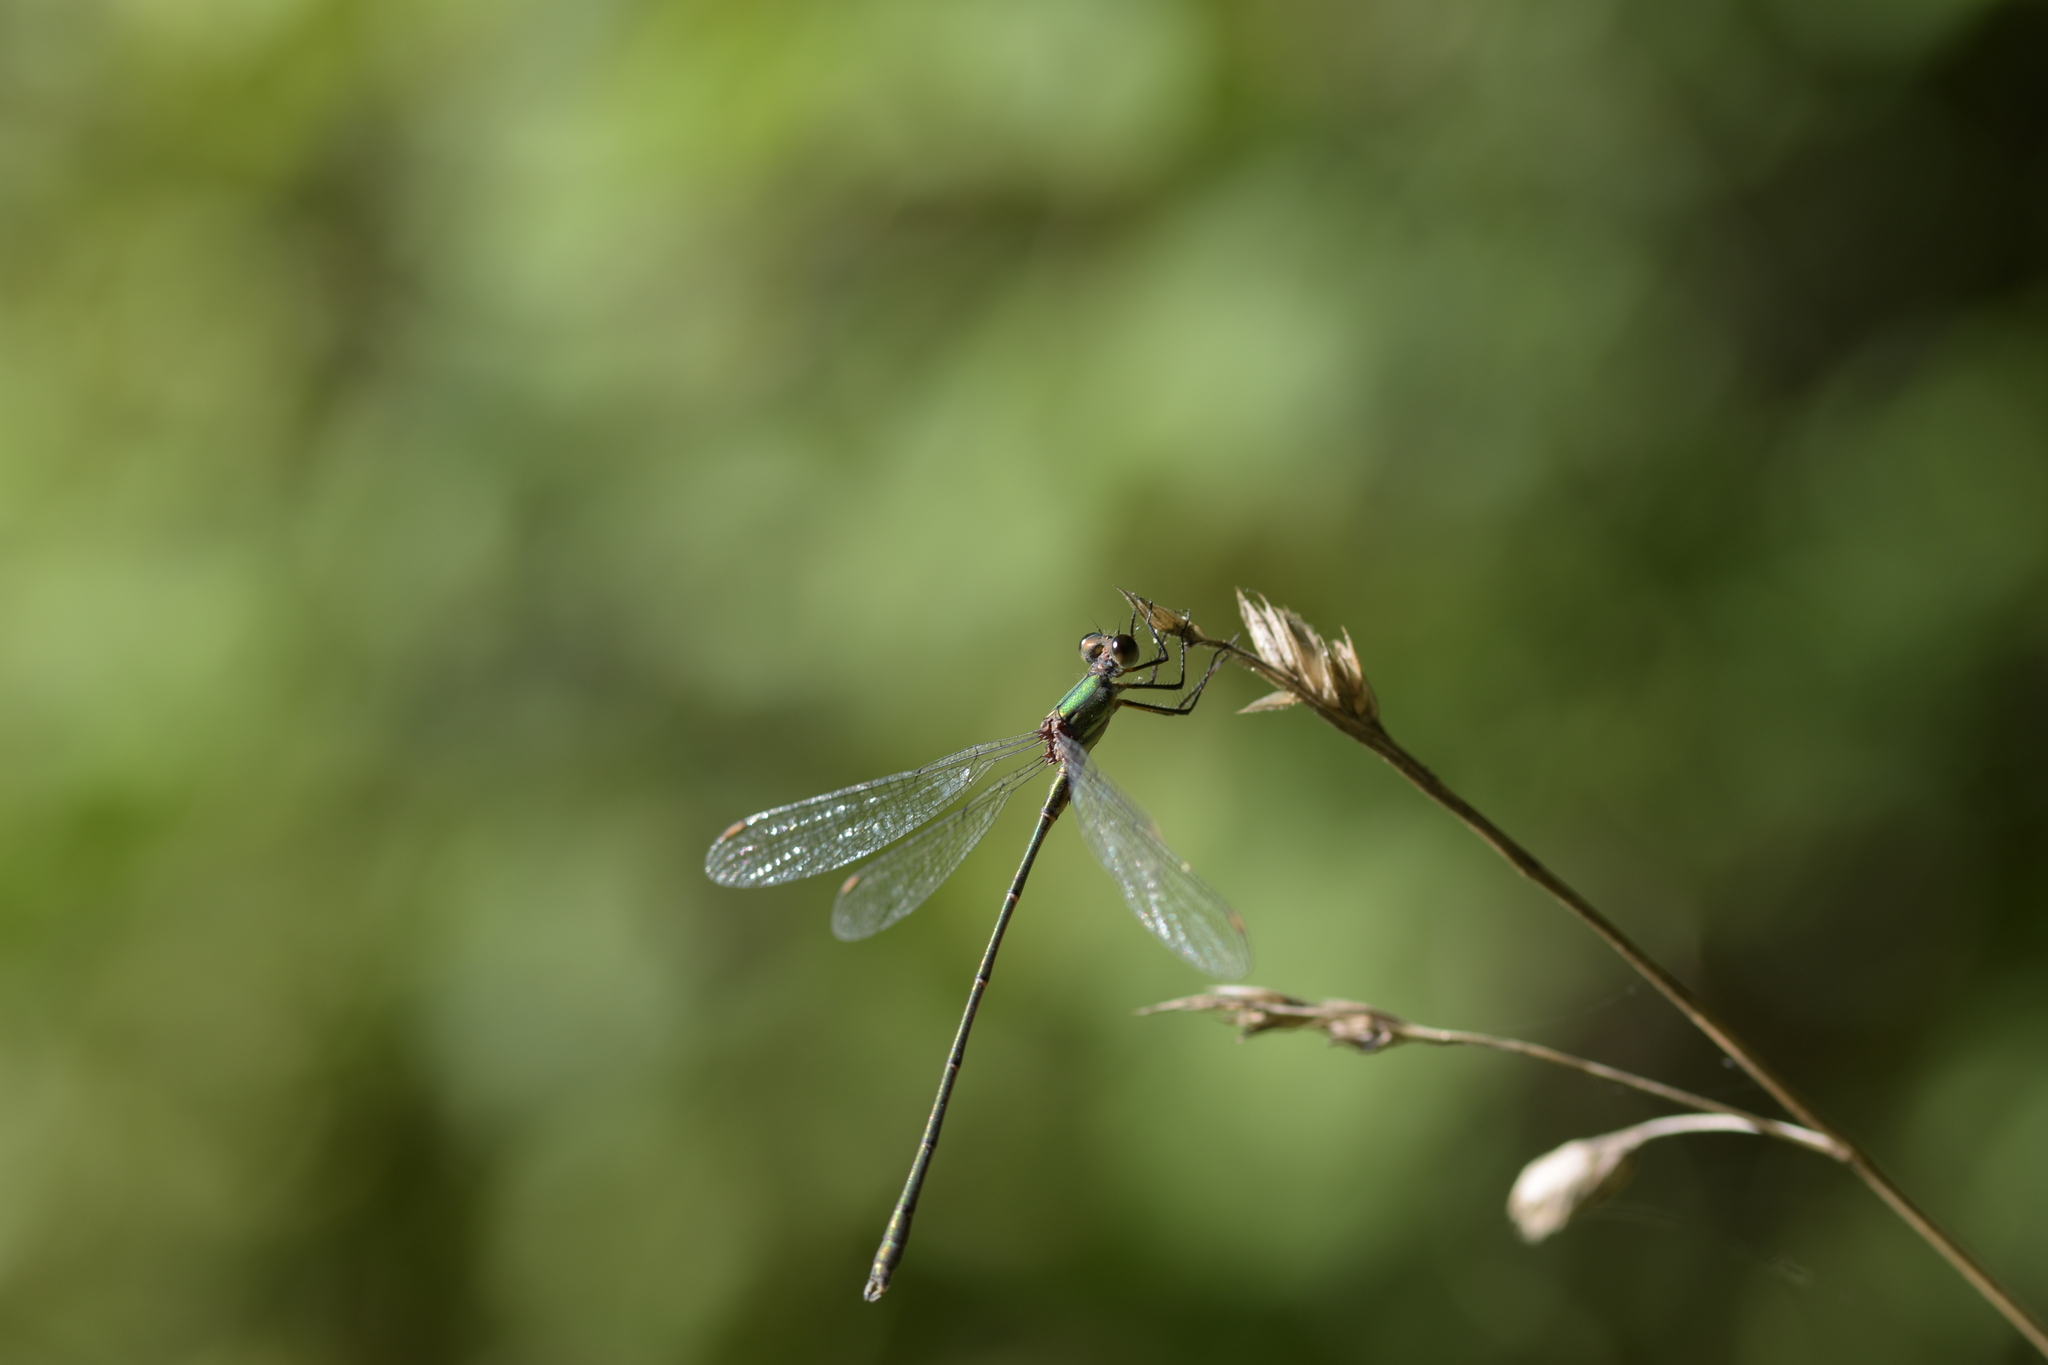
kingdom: Animalia
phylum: Arthropoda
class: Insecta
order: Odonata
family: Lestidae
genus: Chalcolestes
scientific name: Chalcolestes viridis
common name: Green emerald damselfly
